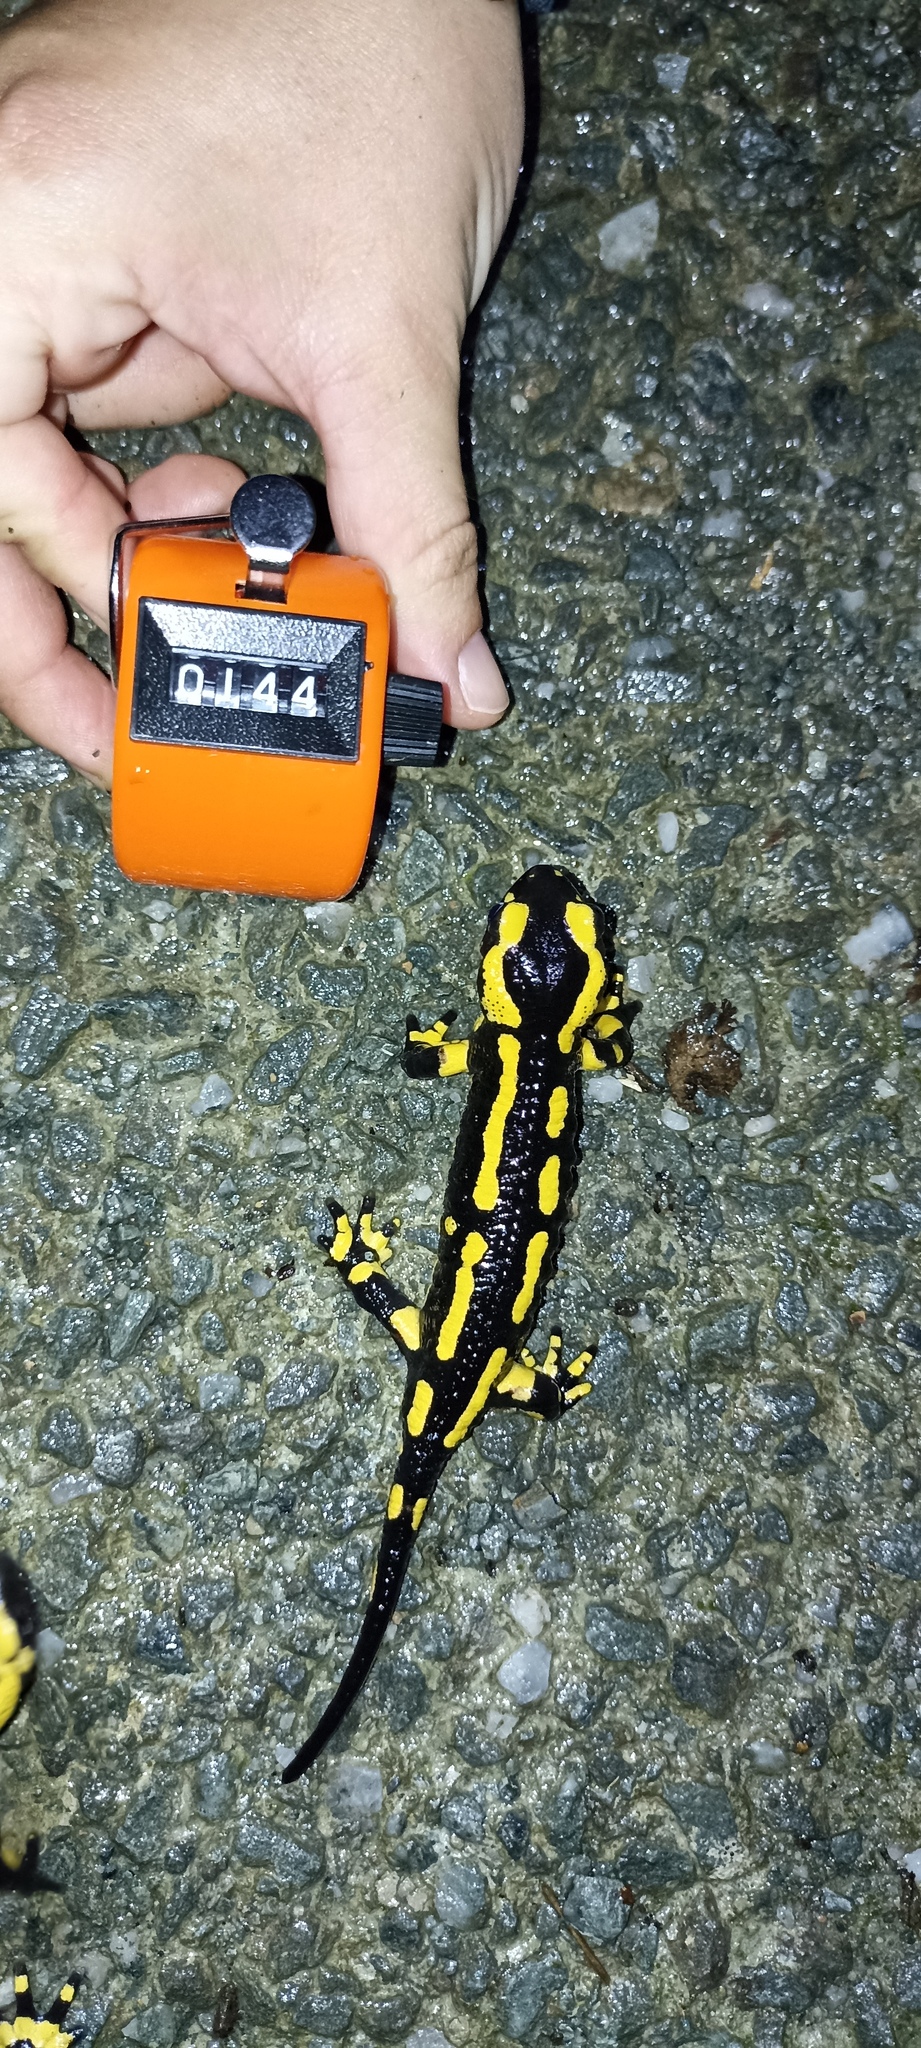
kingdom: Animalia
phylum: Chordata
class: Amphibia
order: Caudata
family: Salamandridae
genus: Salamandra
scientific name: Salamandra salamandra
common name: Fire salamander
